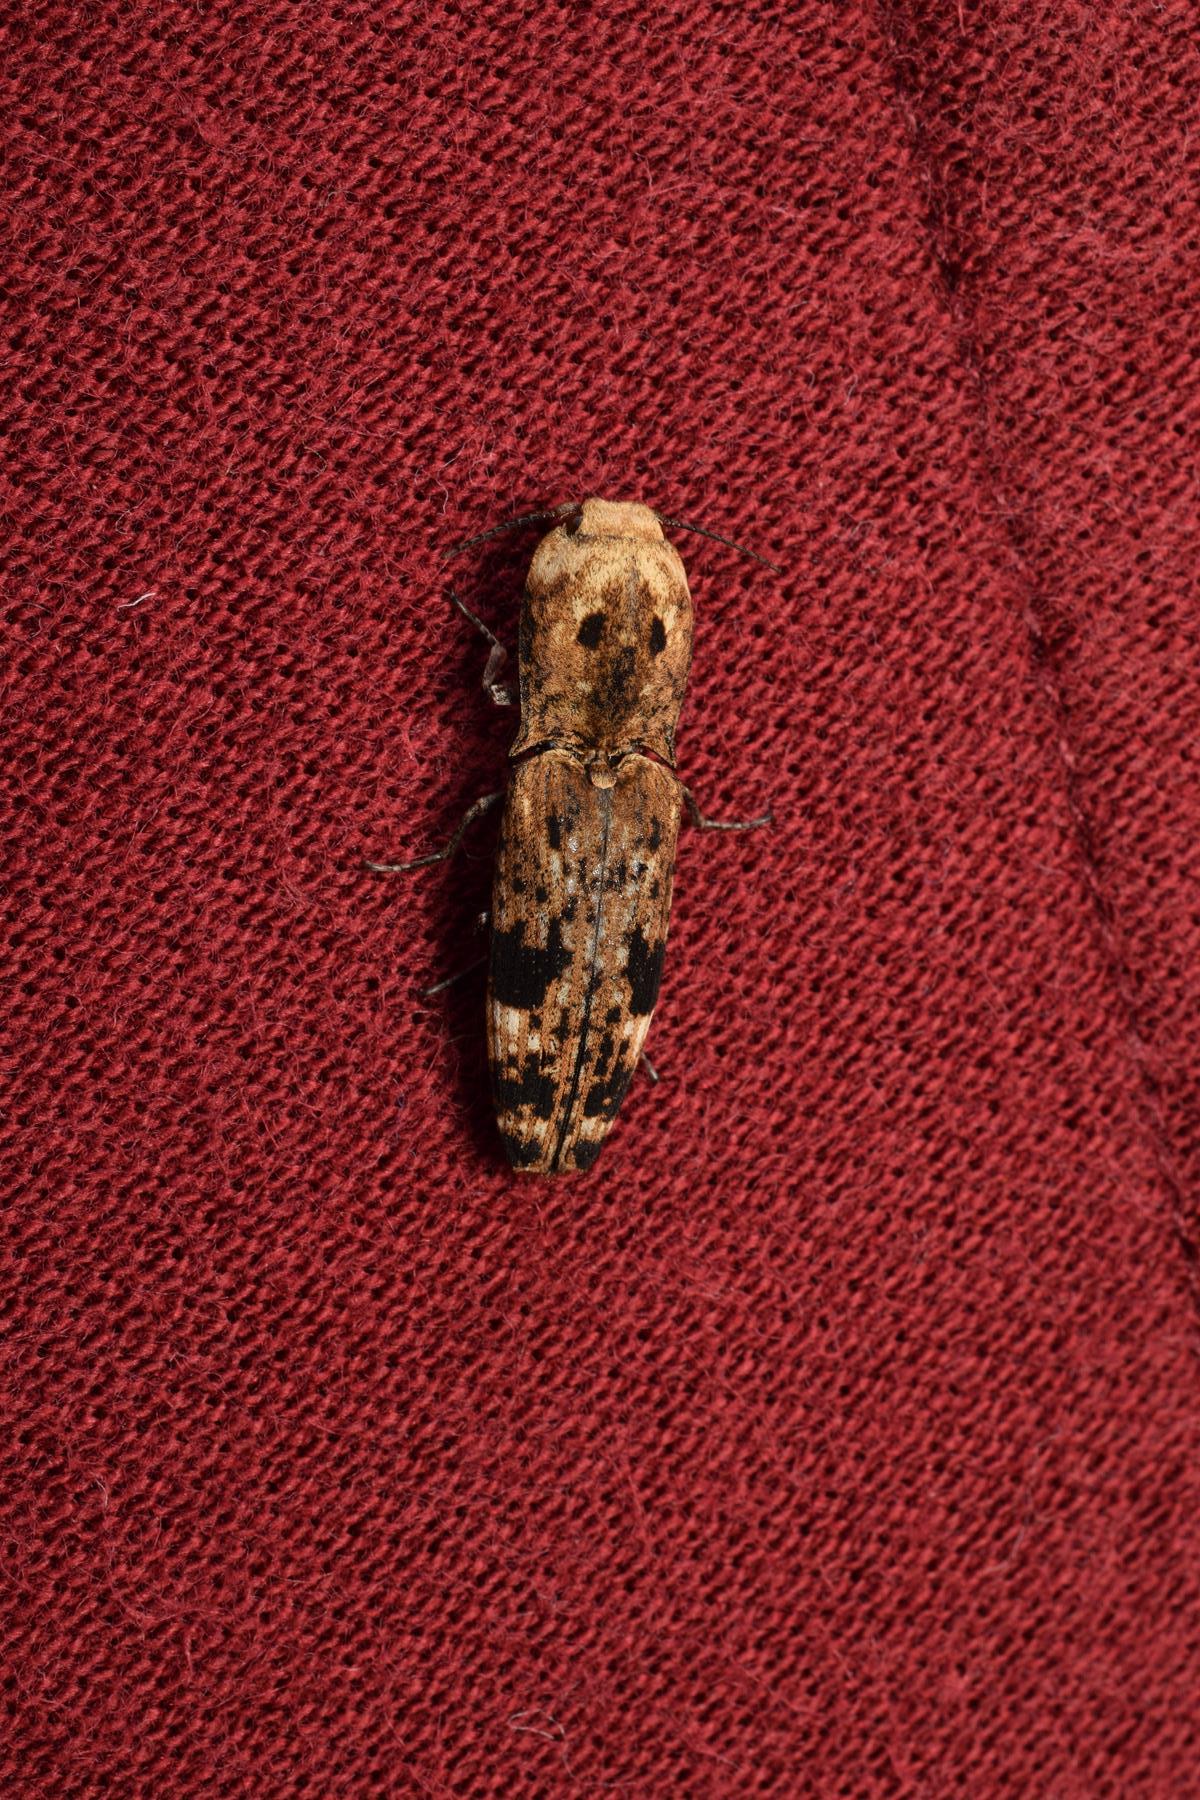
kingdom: Animalia
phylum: Arthropoda
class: Insecta
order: Coleoptera
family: Elateridae
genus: Cryptalaus
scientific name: Cryptalaus alveolatus
